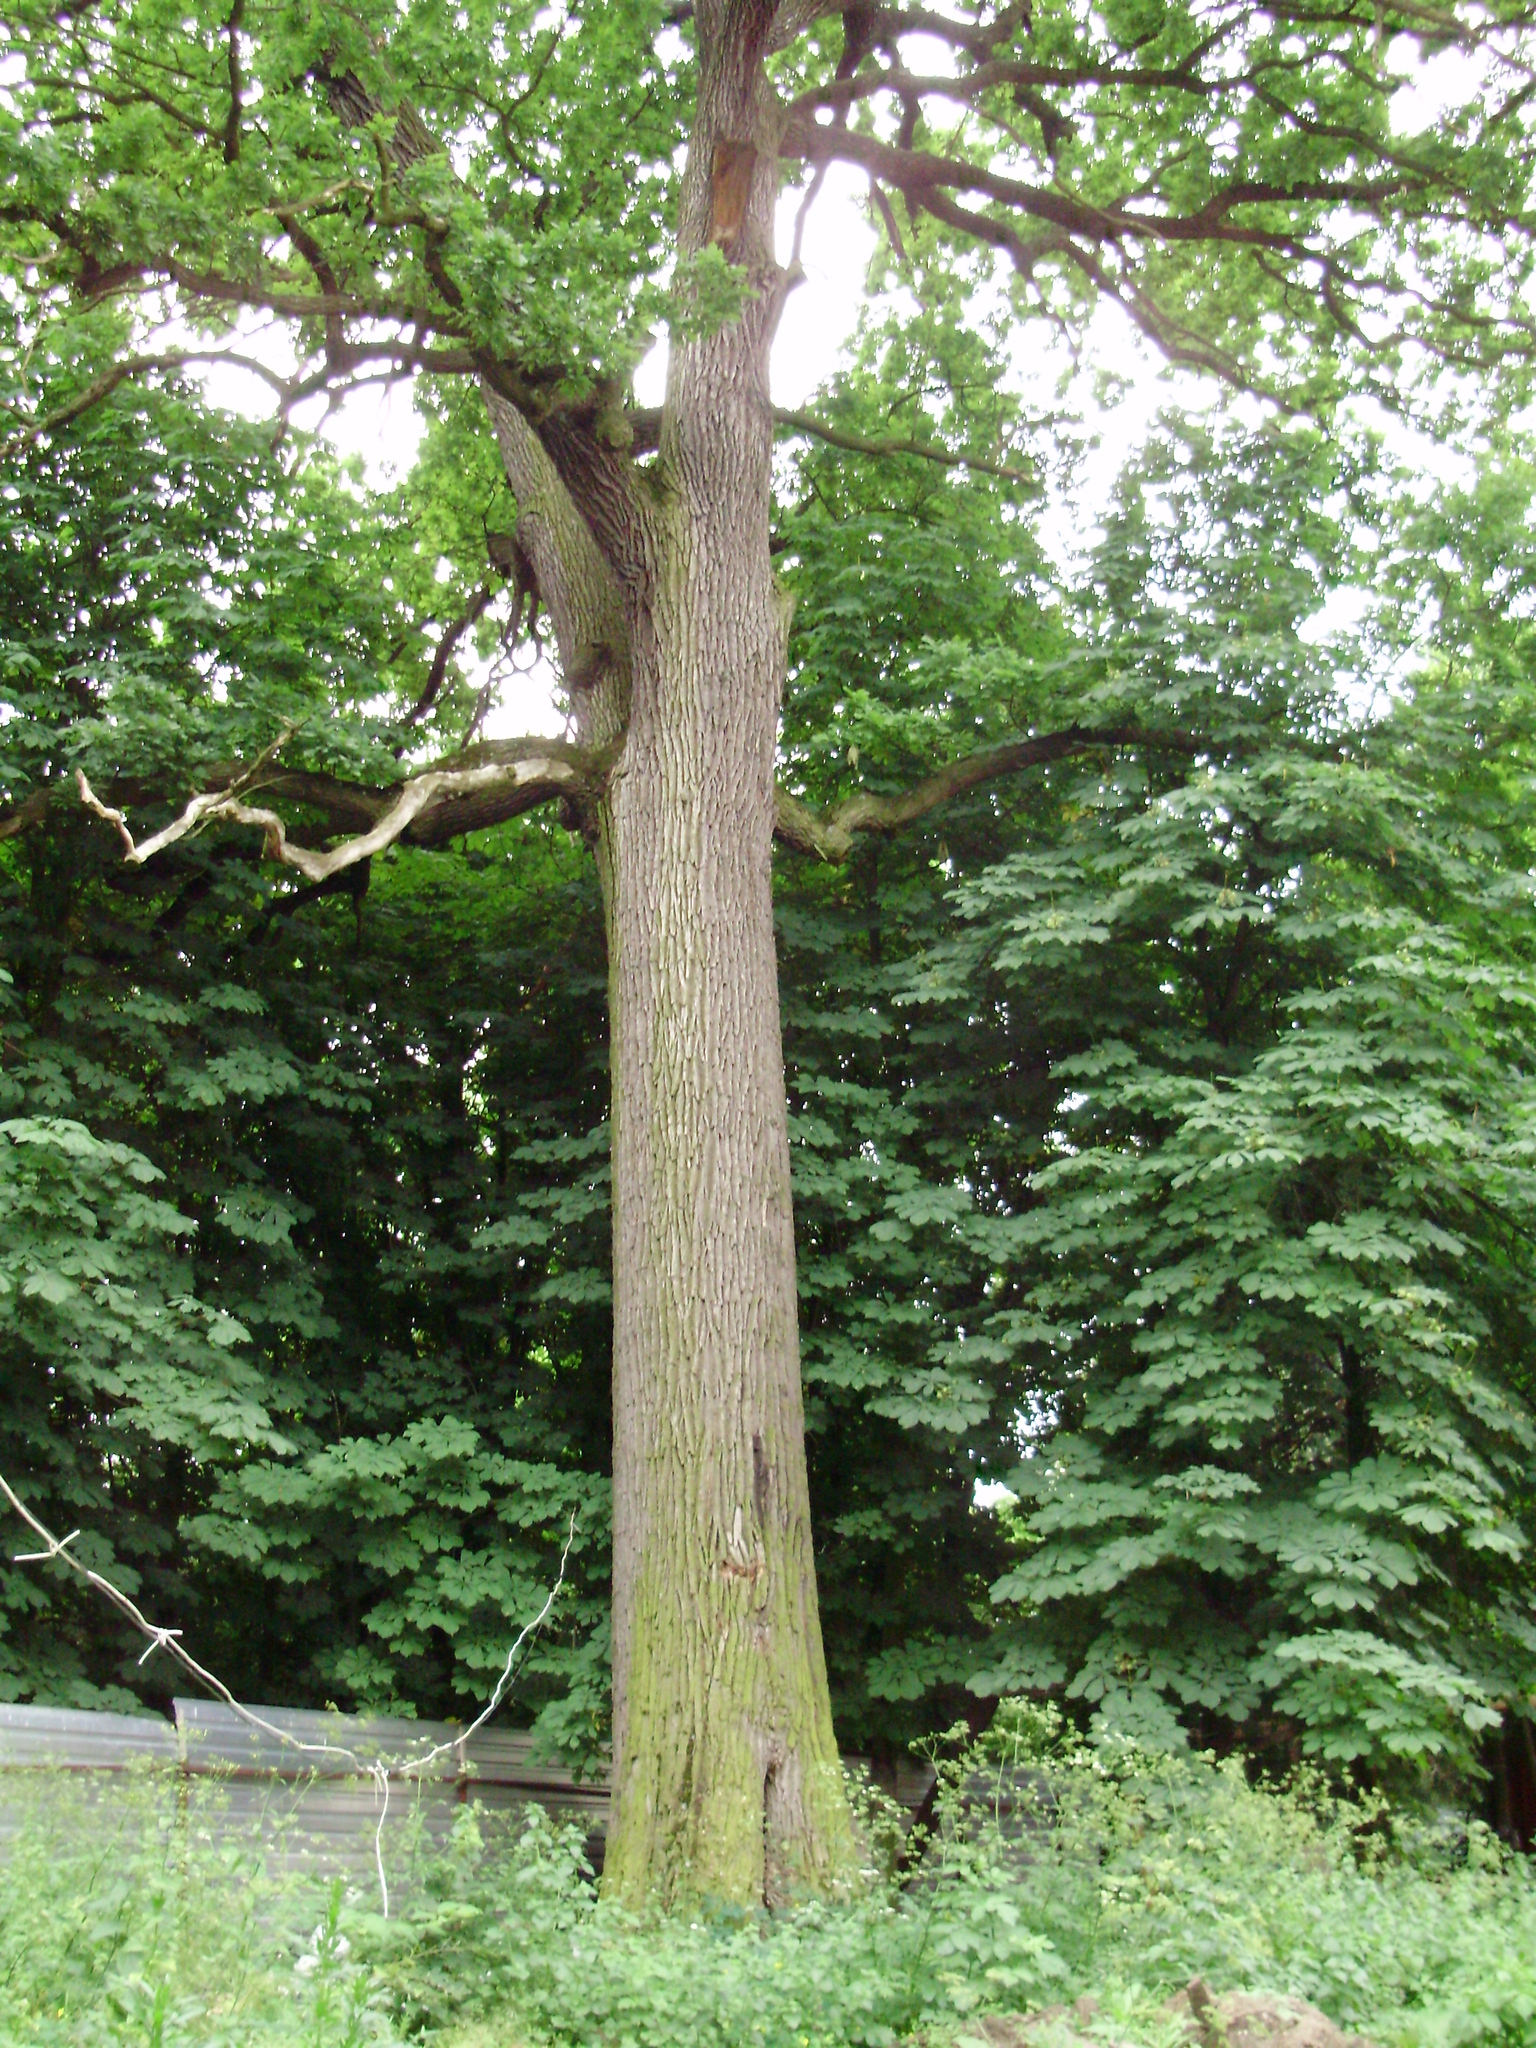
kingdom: Plantae
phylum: Tracheophyta
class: Magnoliopsida
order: Fagales
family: Fagaceae
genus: Quercus
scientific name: Quercus robur
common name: Pedunculate oak
